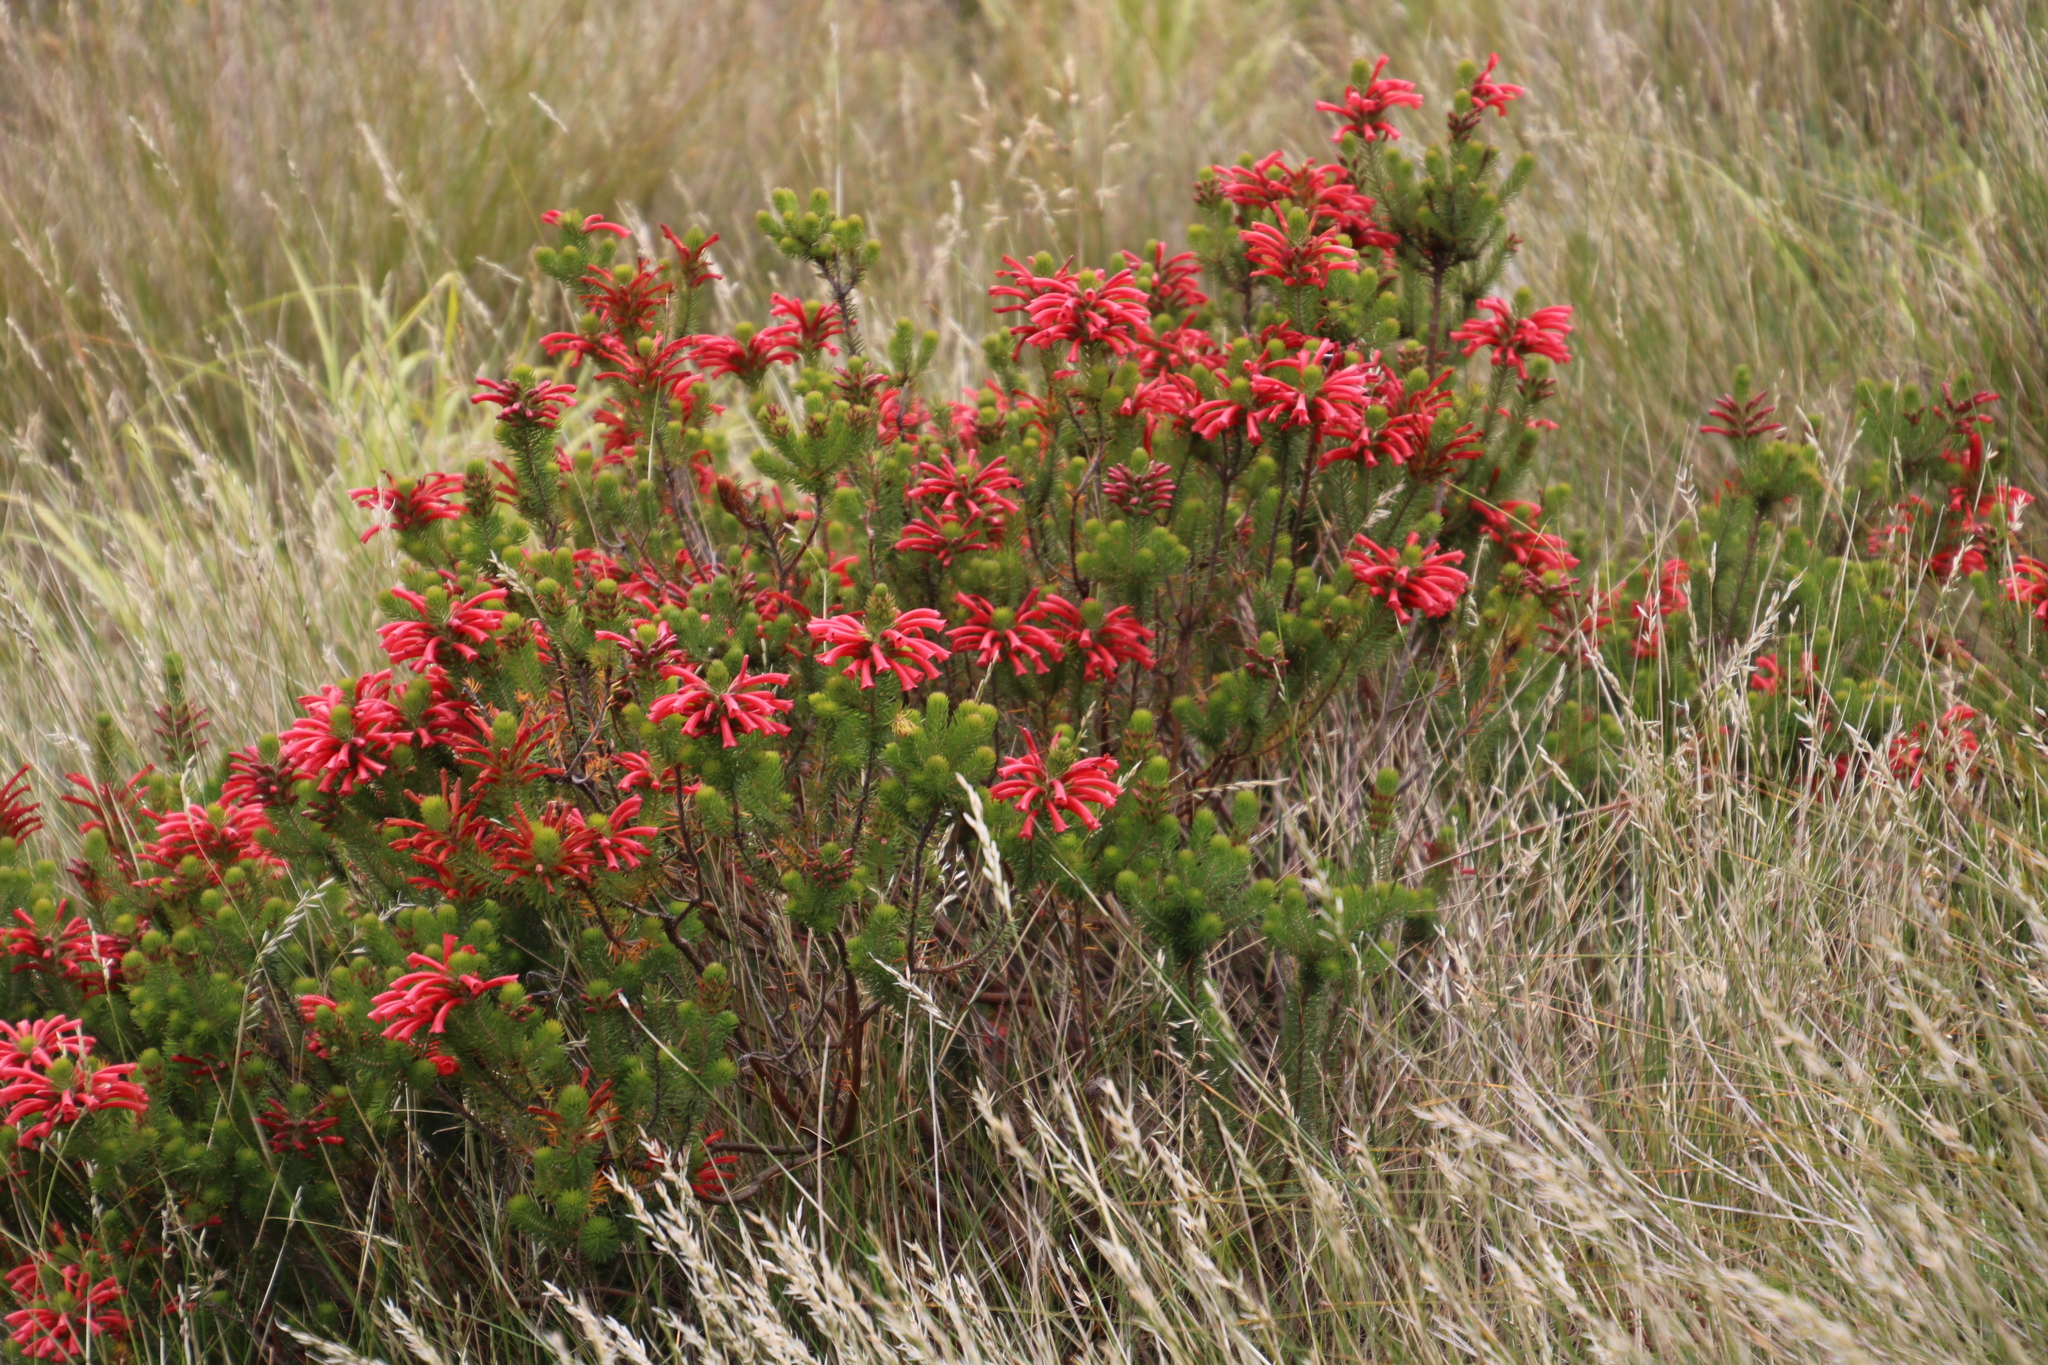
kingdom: Plantae
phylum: Tracheophyta
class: Magnoliopsida
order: Ericales
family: Ericaceae
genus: Erica
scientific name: Erica abietina
